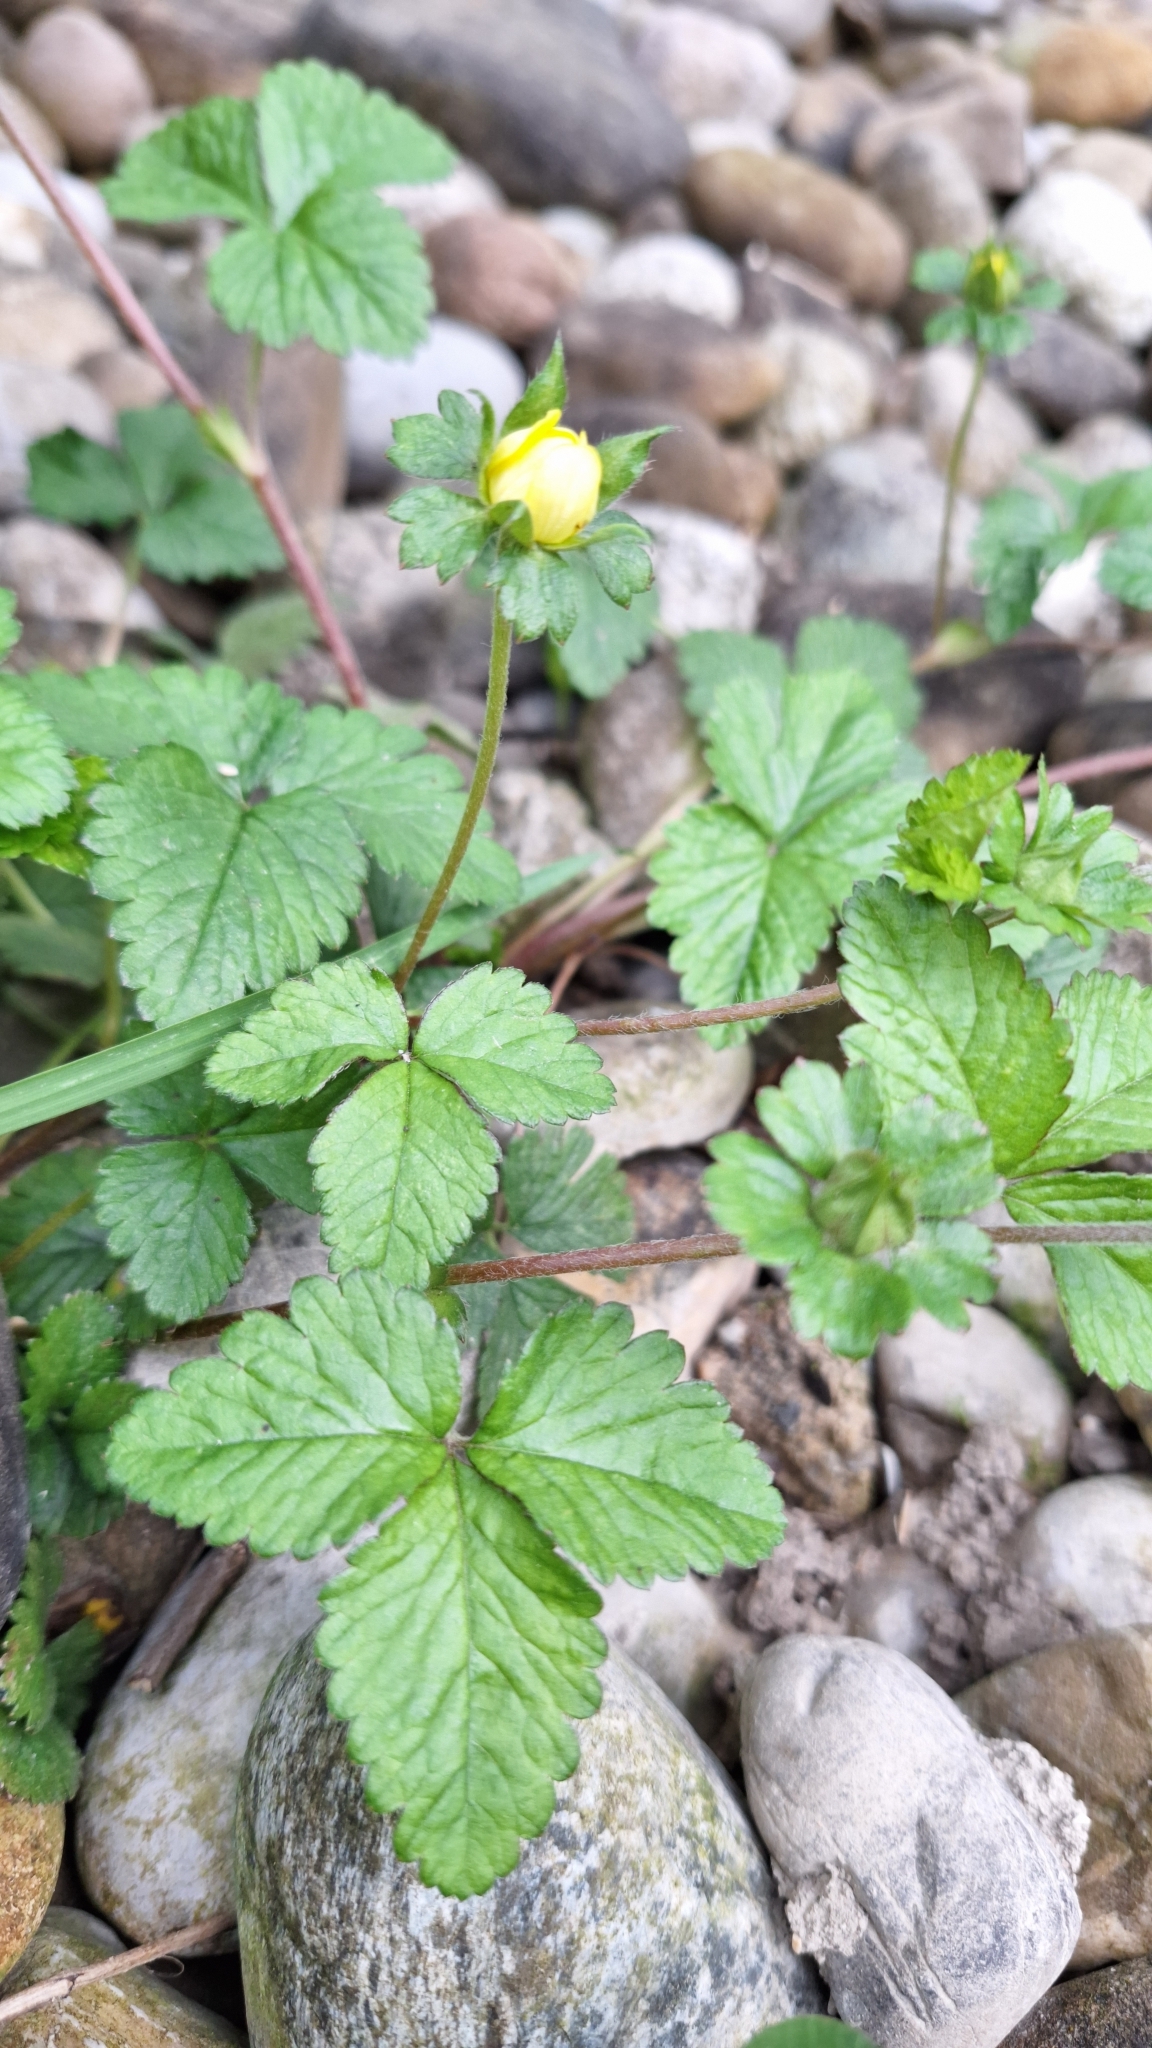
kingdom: Plantae
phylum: Tracheophyta
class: Magnoliopsida
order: Rosales
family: Rosaceae
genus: Potentilla
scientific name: Potentilla indica
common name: Yellow-flowered strawberry
